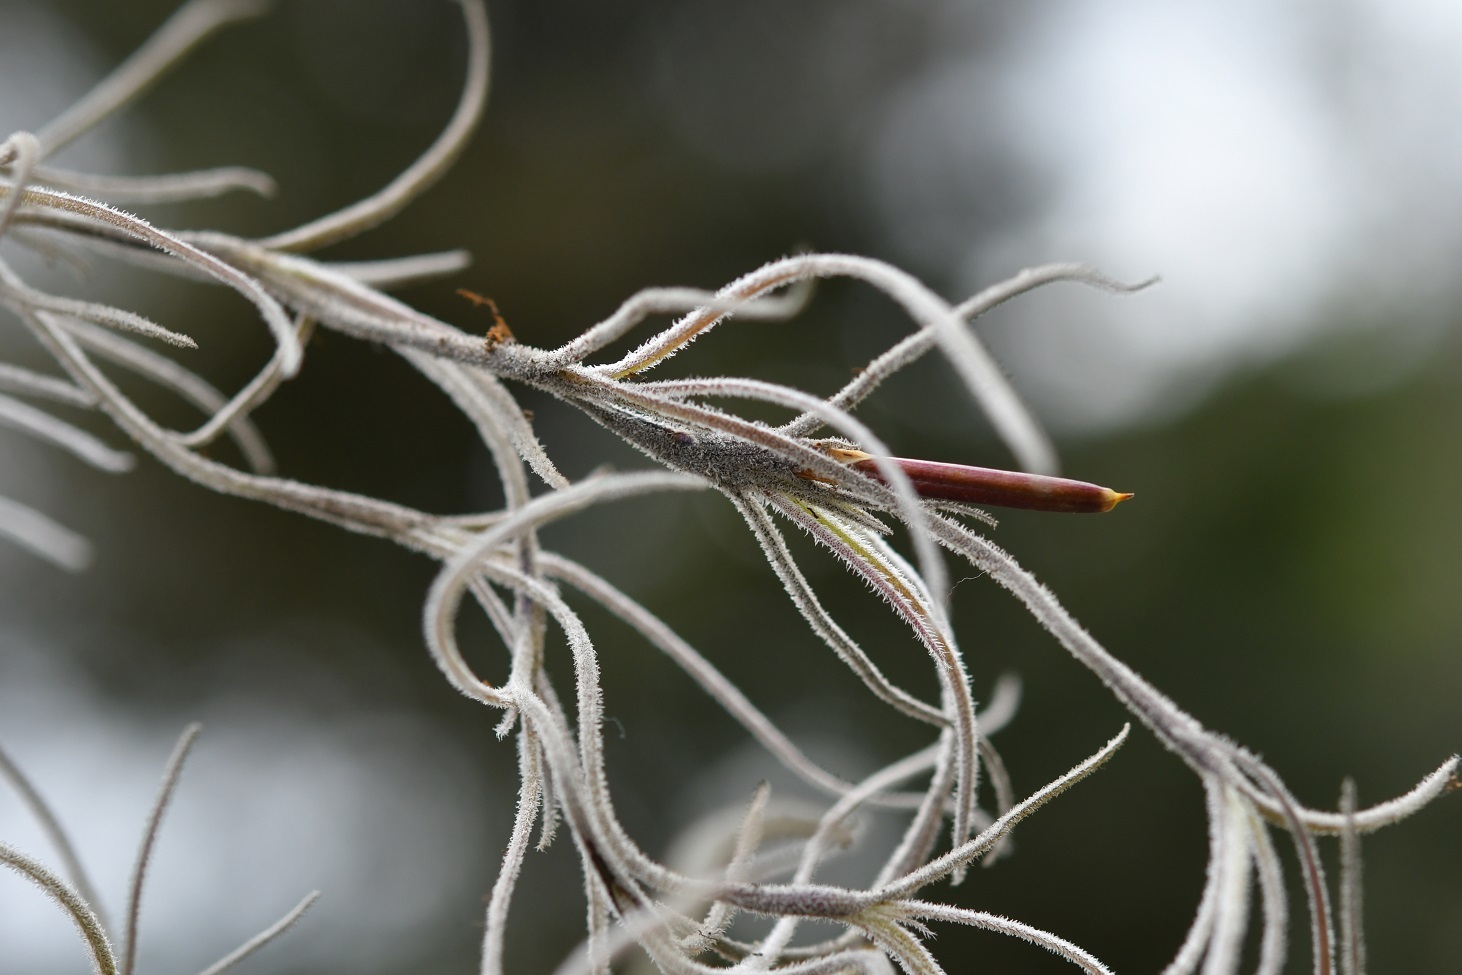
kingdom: Plantae
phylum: Tracheophyta
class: Liliopsida
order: Poales
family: Bromeliaceae
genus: Tillandsia
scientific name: Tillandsia usneoides
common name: Spanish moss
